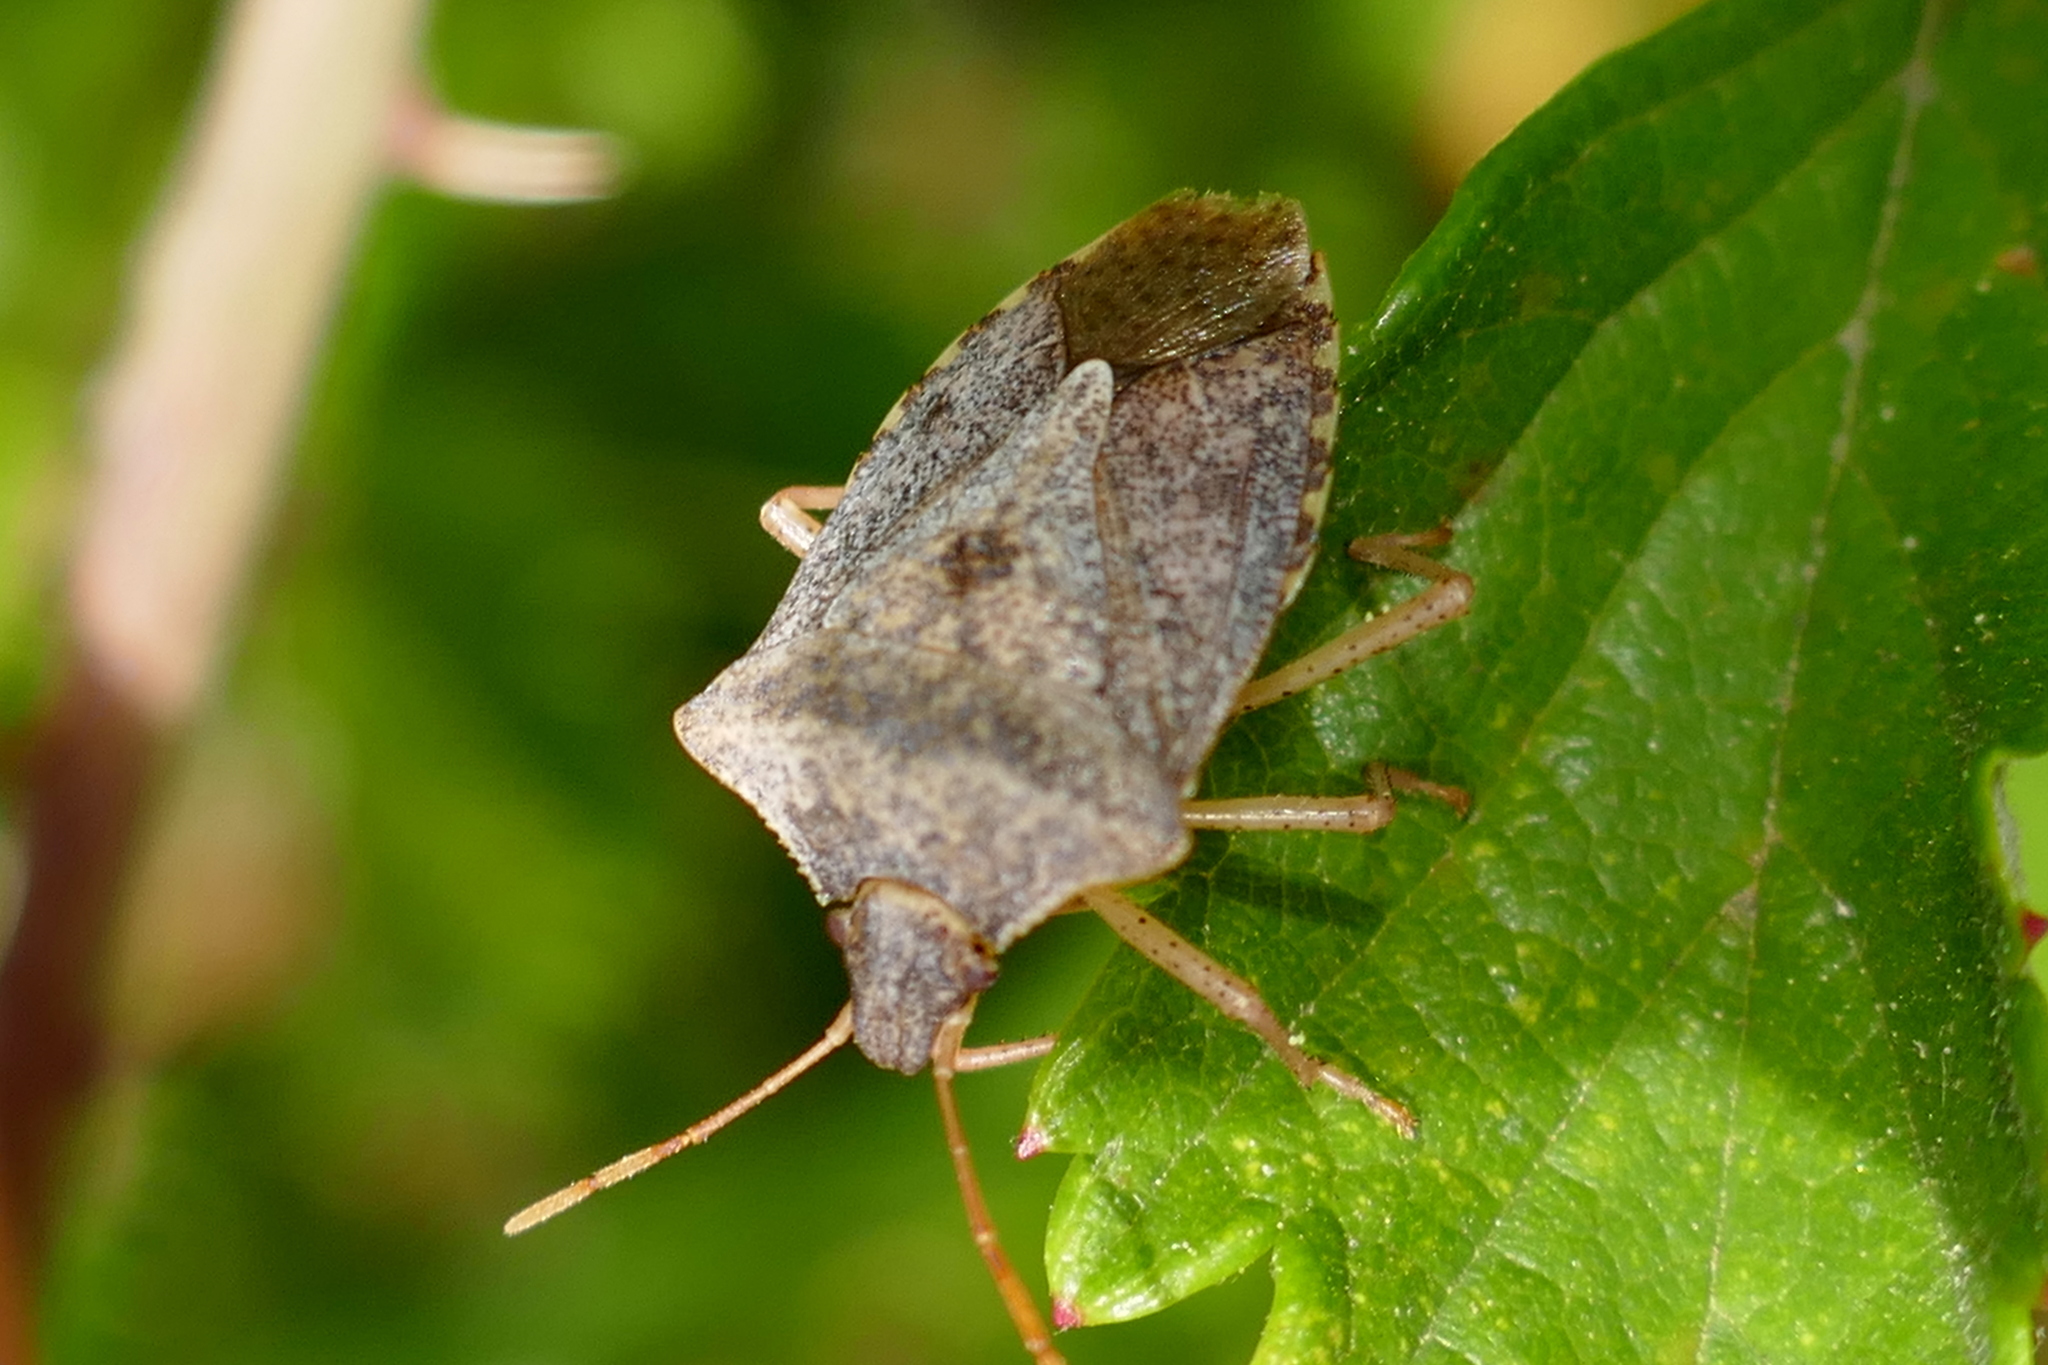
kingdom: Animalia
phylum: Arthropoda
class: Insecta
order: Hemiptera
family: Pentatomidae
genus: Euschistus
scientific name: Euschistus servus
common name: Brown stink bug
